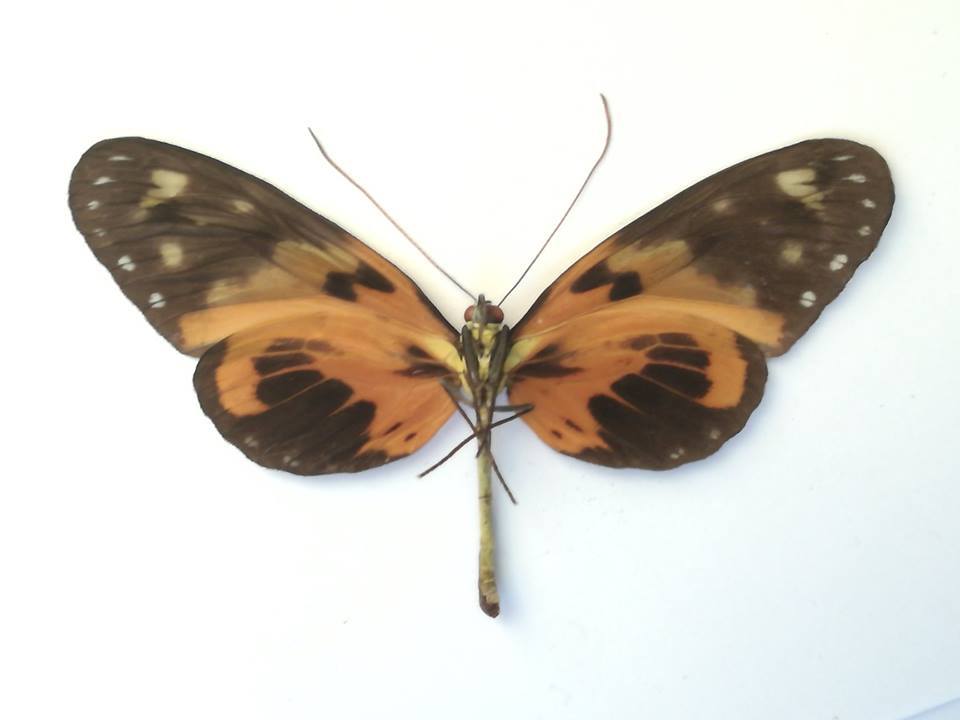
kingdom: Animalia
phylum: Arthropoda
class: Insecta
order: Lepidoptera
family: Nymphalidae
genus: Melinaea
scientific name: Melinaea ludovica
